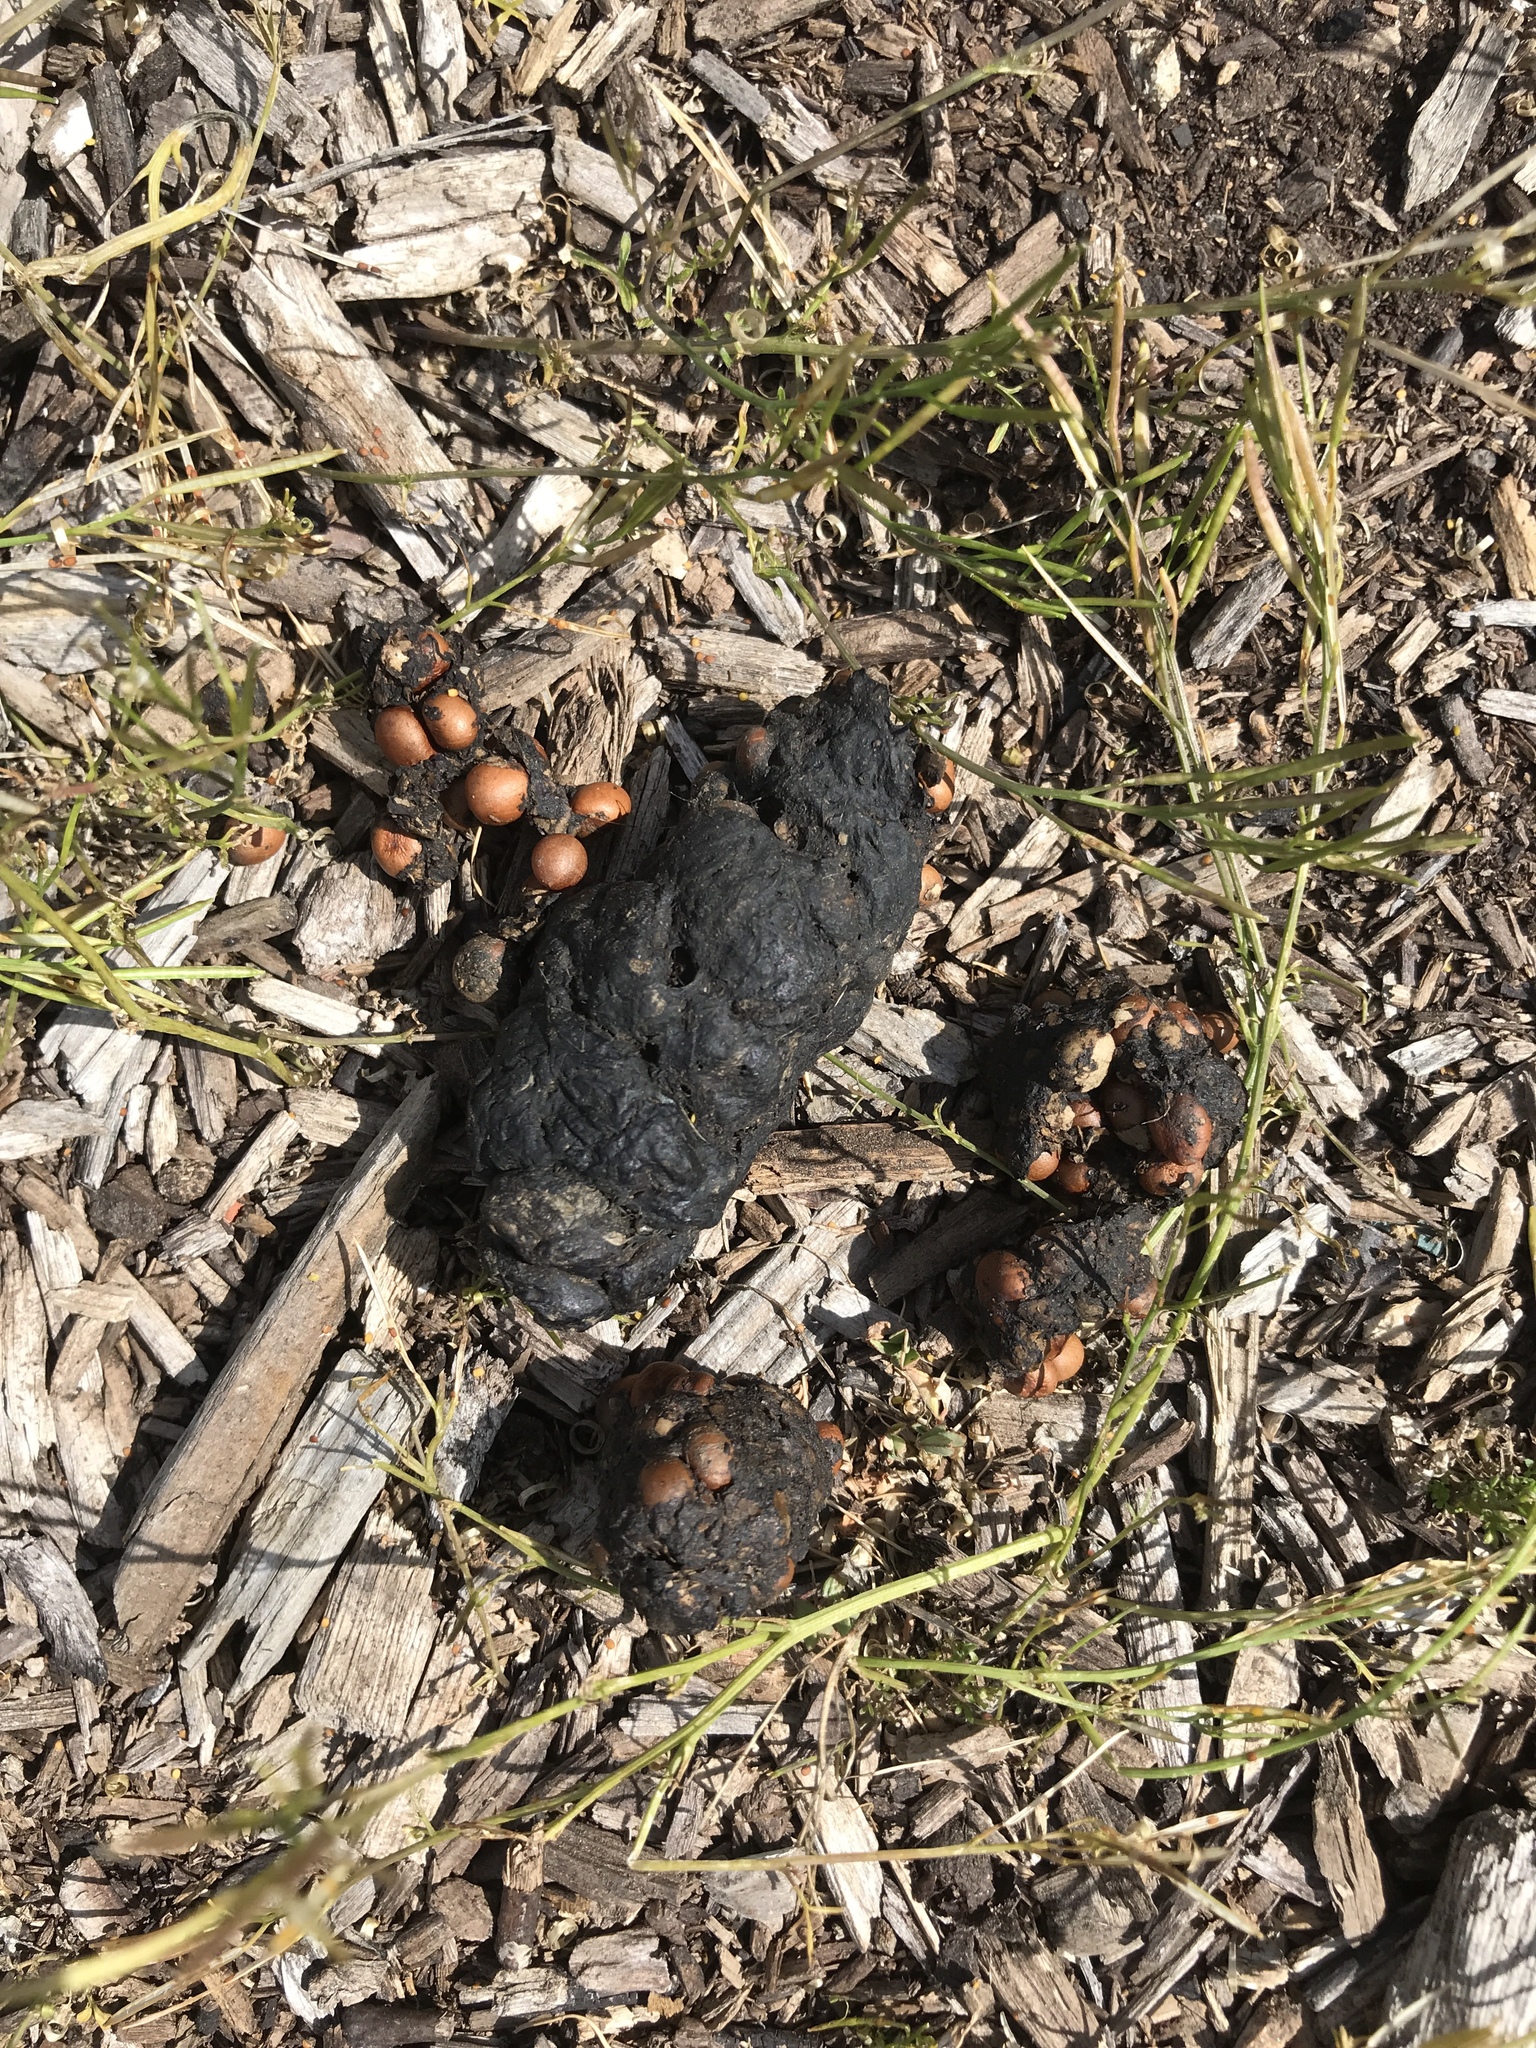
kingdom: Animalia
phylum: Chordata
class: Mammalia
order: Carnivora
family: Canidae
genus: Canis
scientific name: Canis latrans
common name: Coyote
